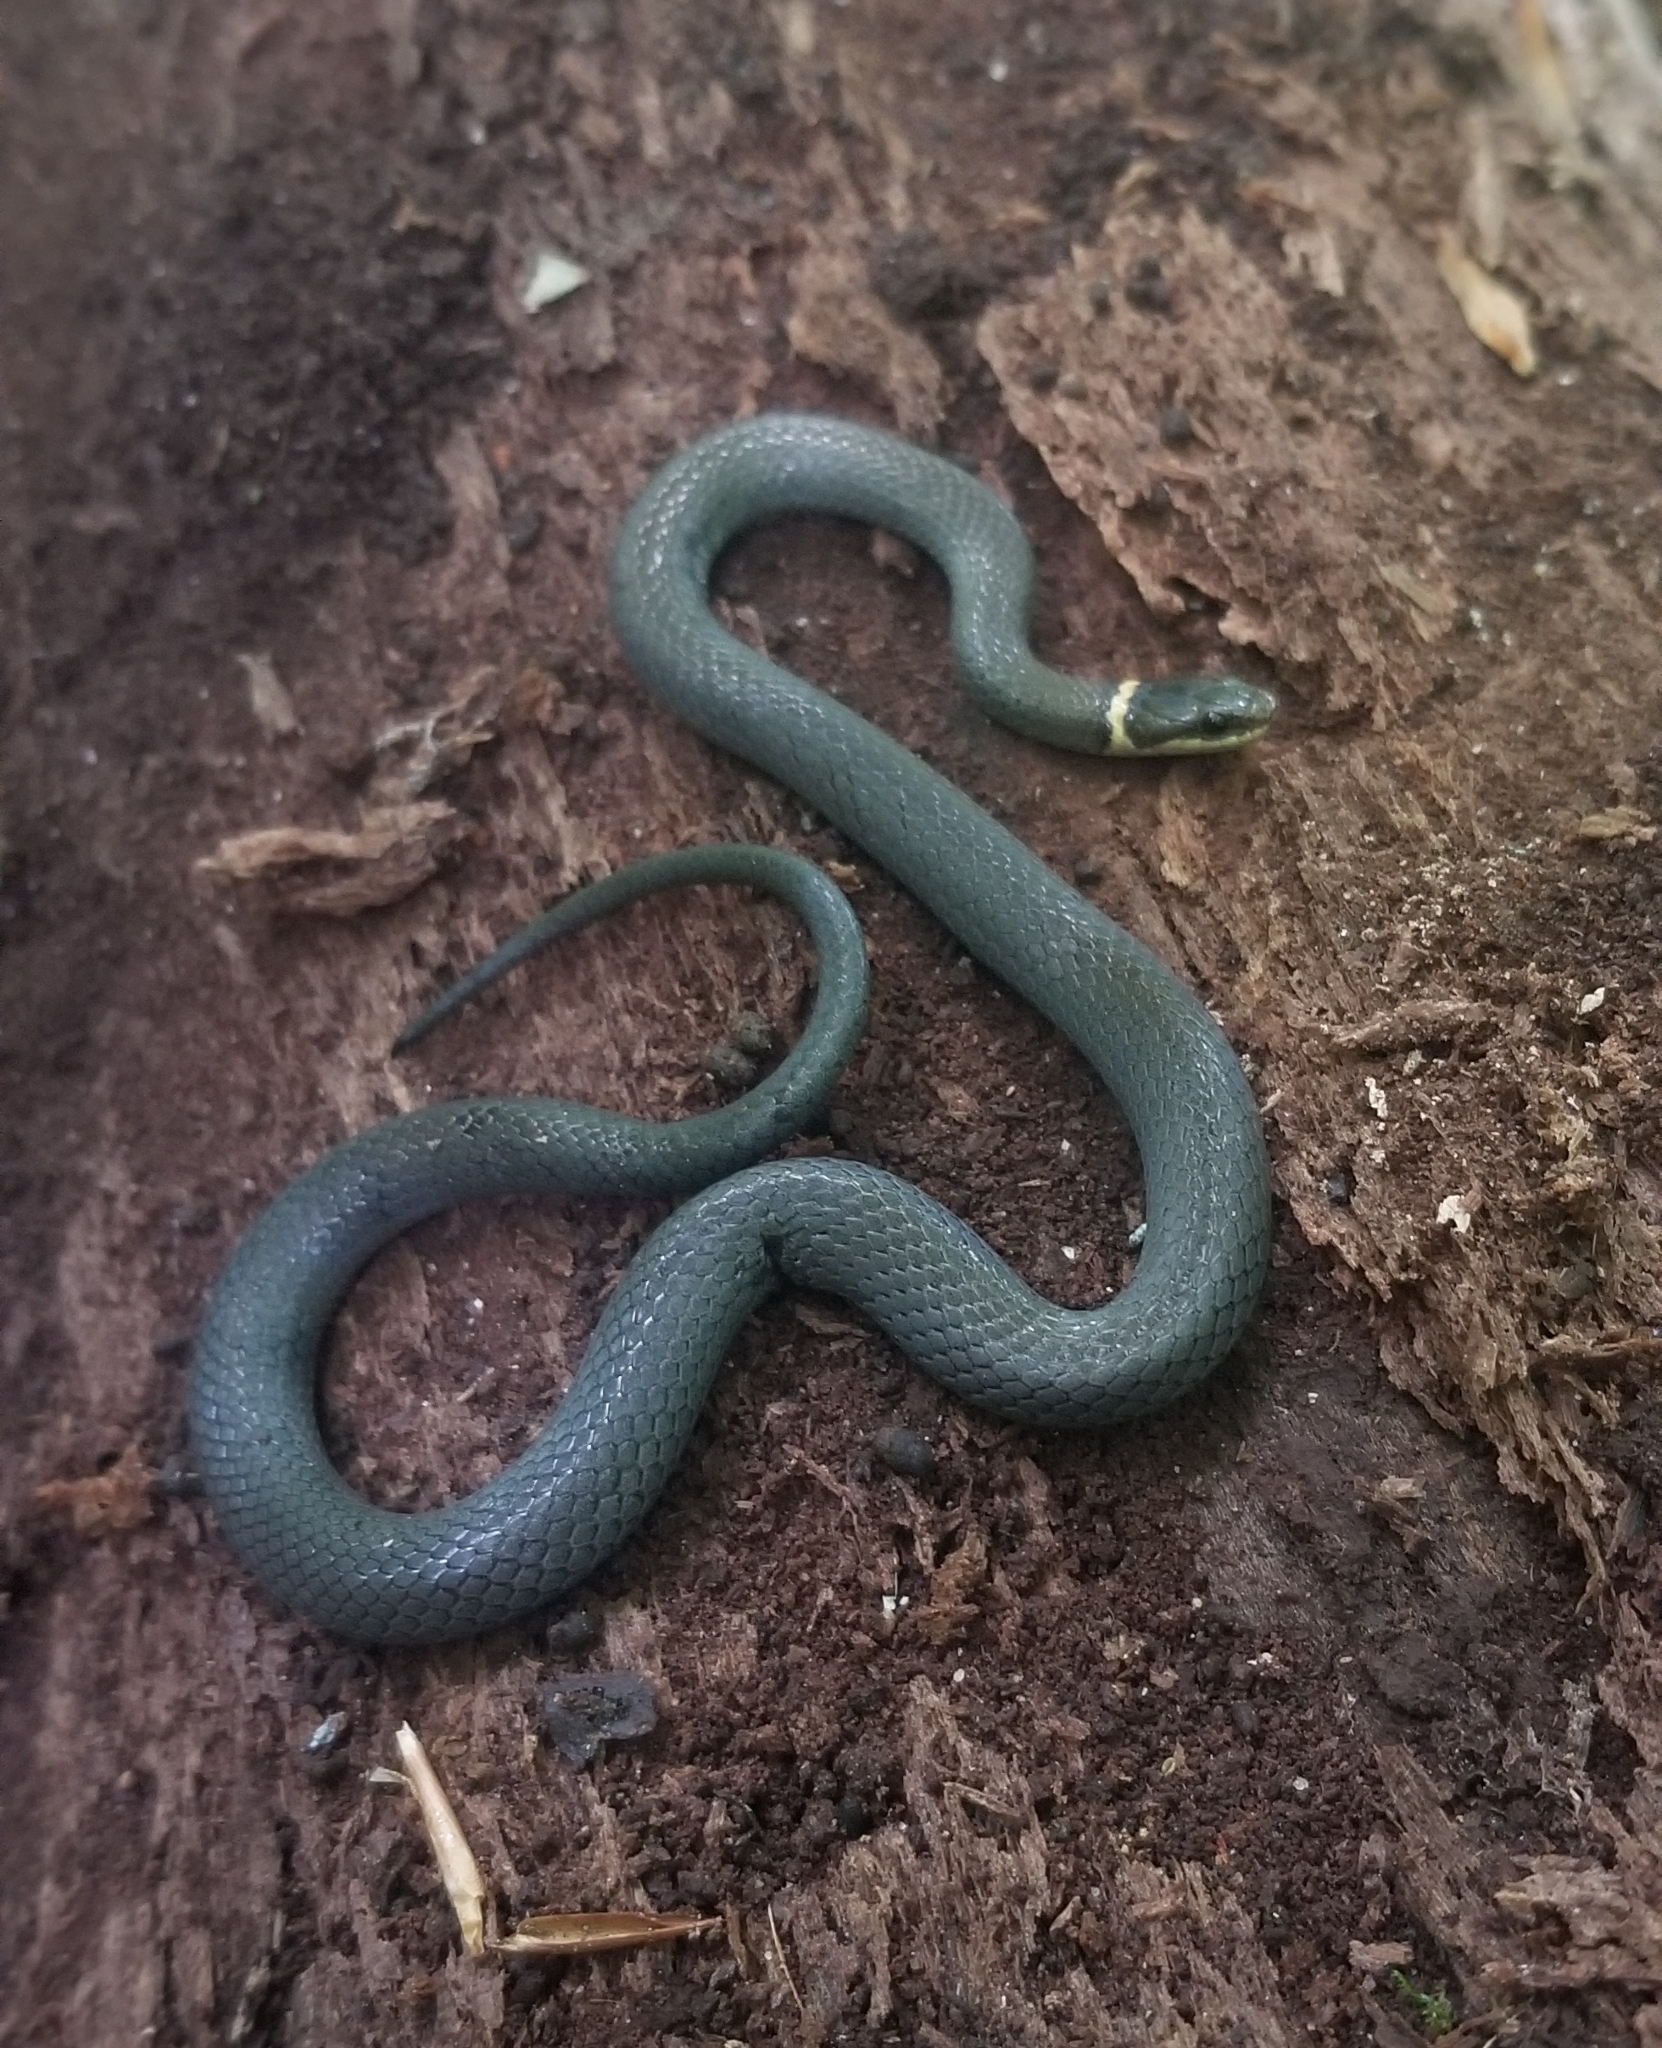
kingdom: Animalia
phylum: Chordata
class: Squamata
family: Colubridae
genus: Diadophis
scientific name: Diadophis punctatus
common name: Ringneck snake
